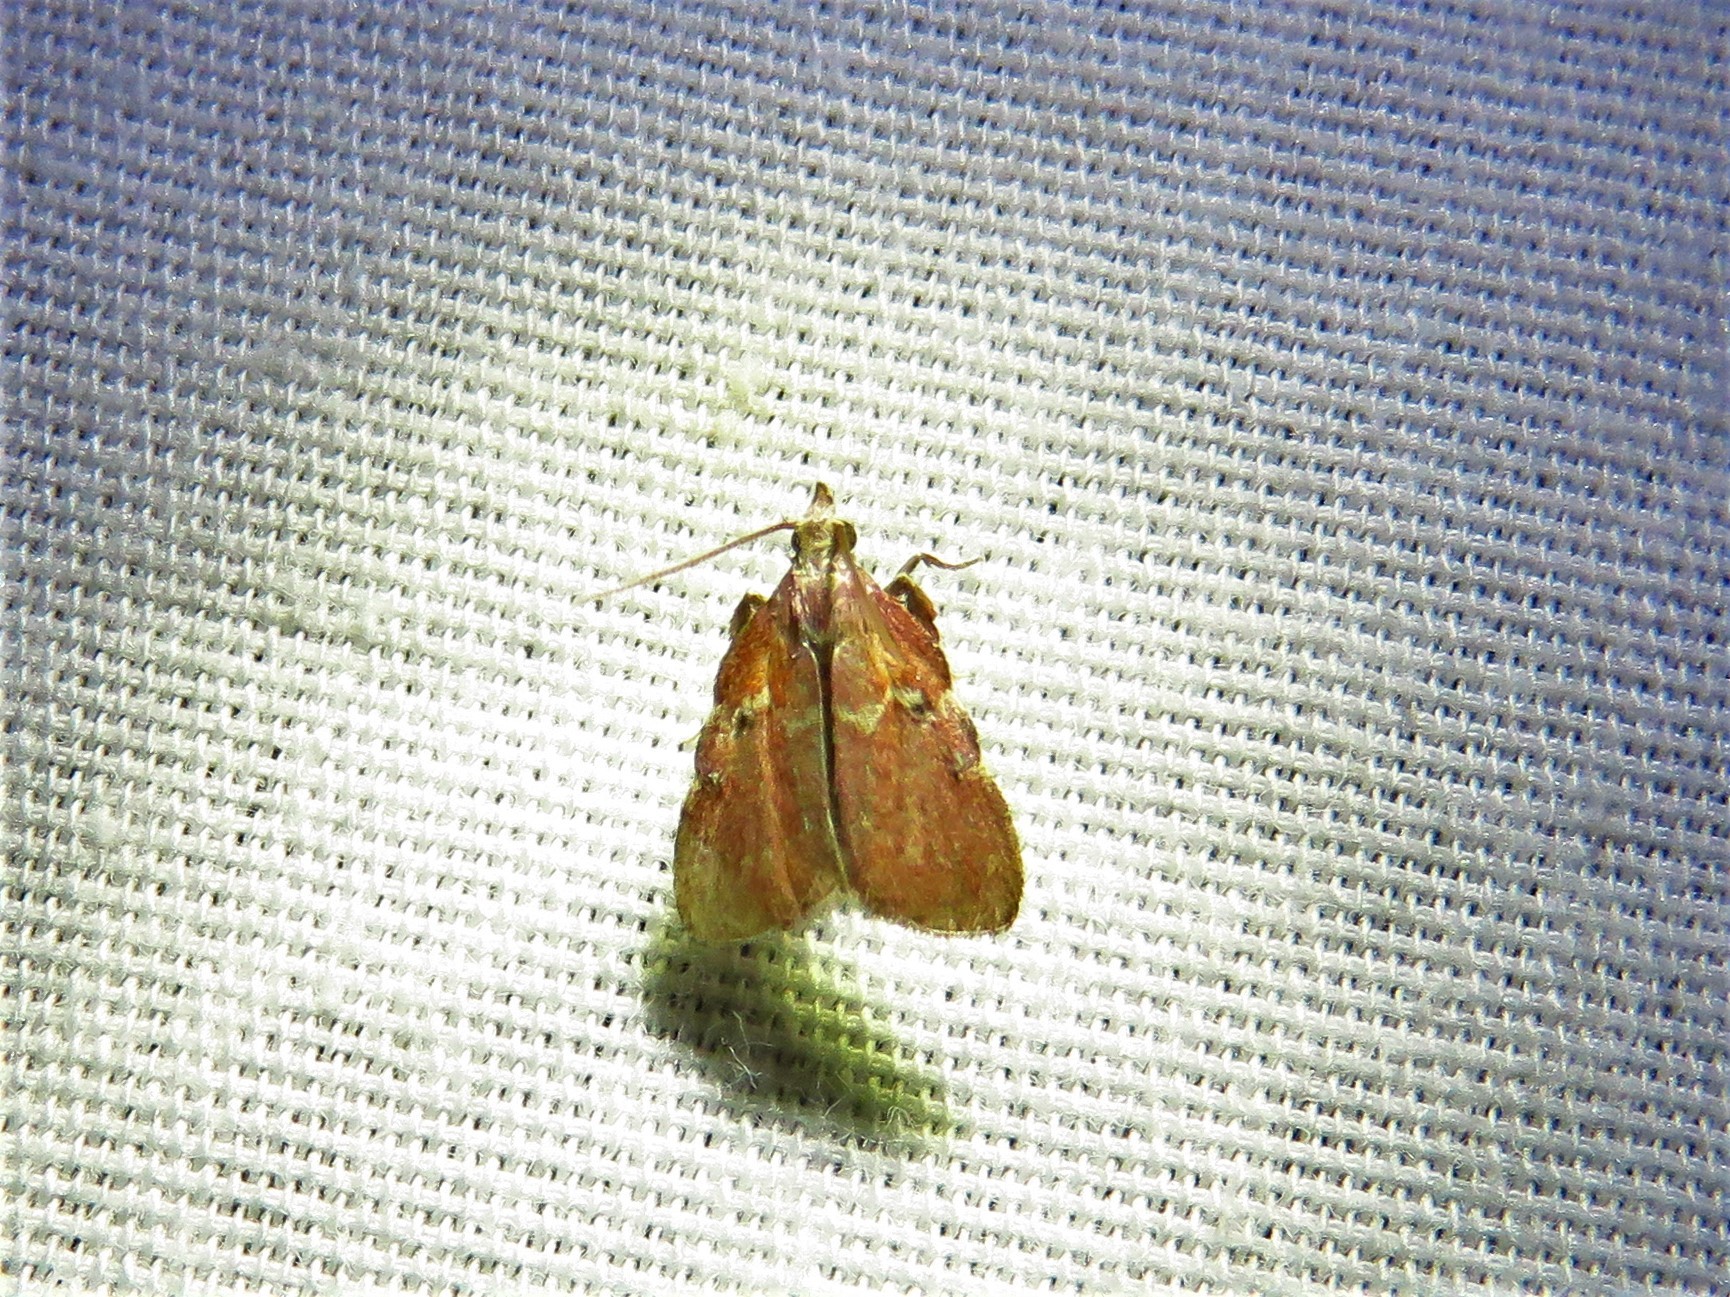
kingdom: Animalia
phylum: Arthropoda
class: Insecta
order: Lepidoptera
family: Pyralidae
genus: Galasa
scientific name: Galasa nigrinodis
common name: Boxwood leaftier moth
